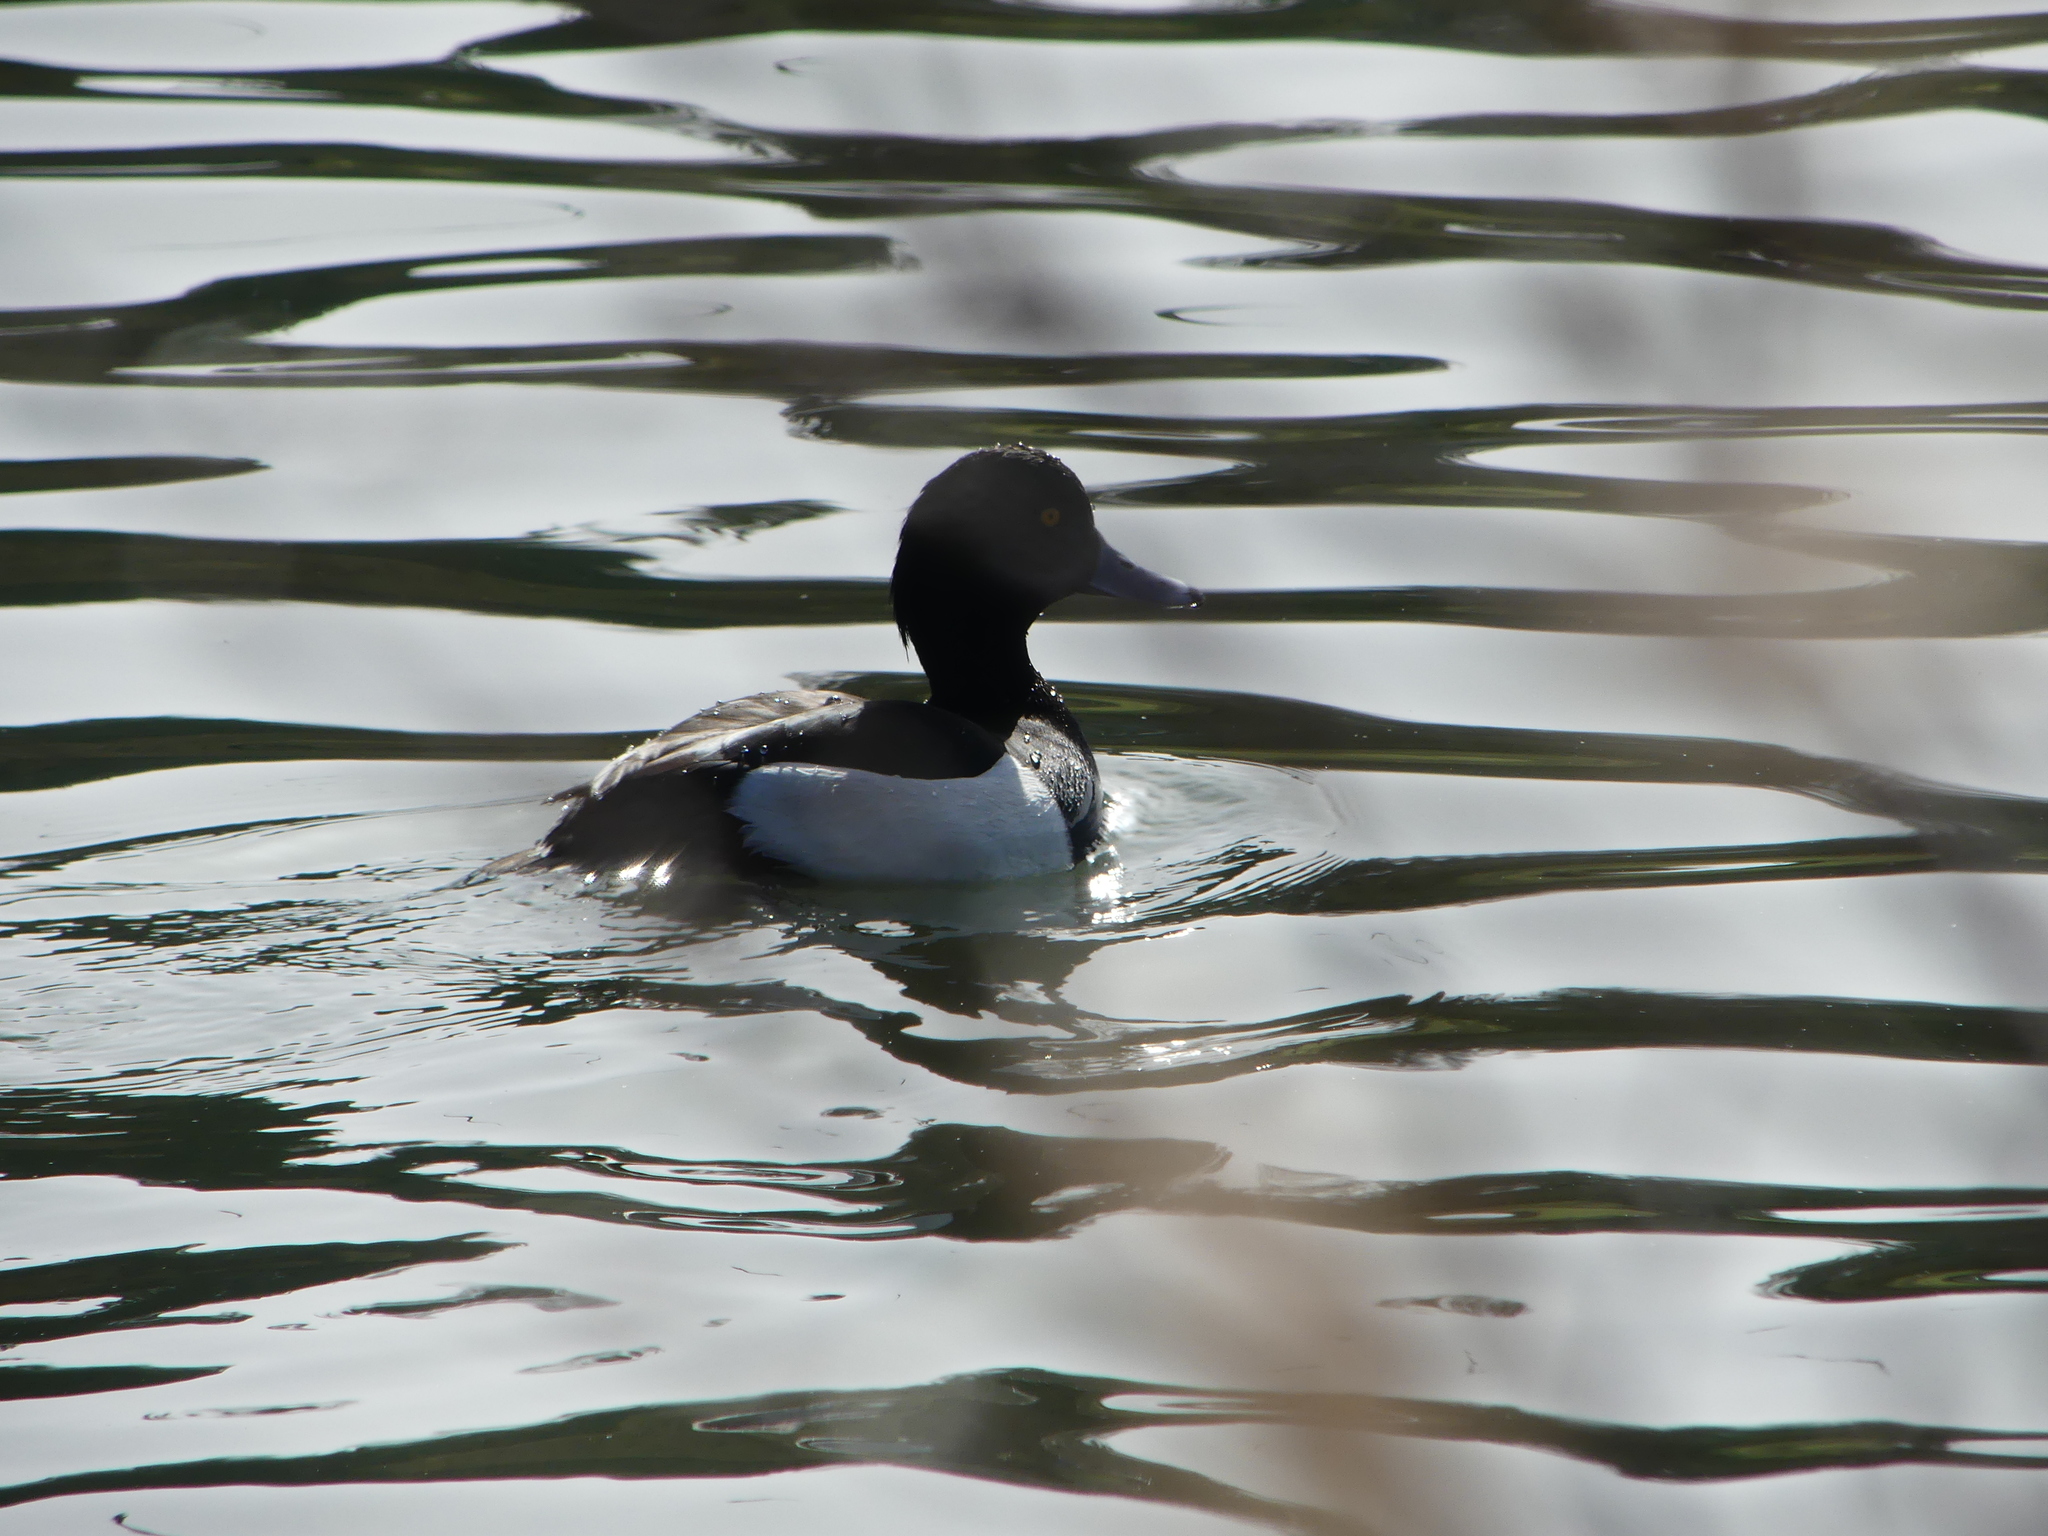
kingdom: Animalia
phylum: Chordata
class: Aves
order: Anseriformes
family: Anatidae
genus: Aythya
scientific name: Aythya fuligula
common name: Tufted duck
